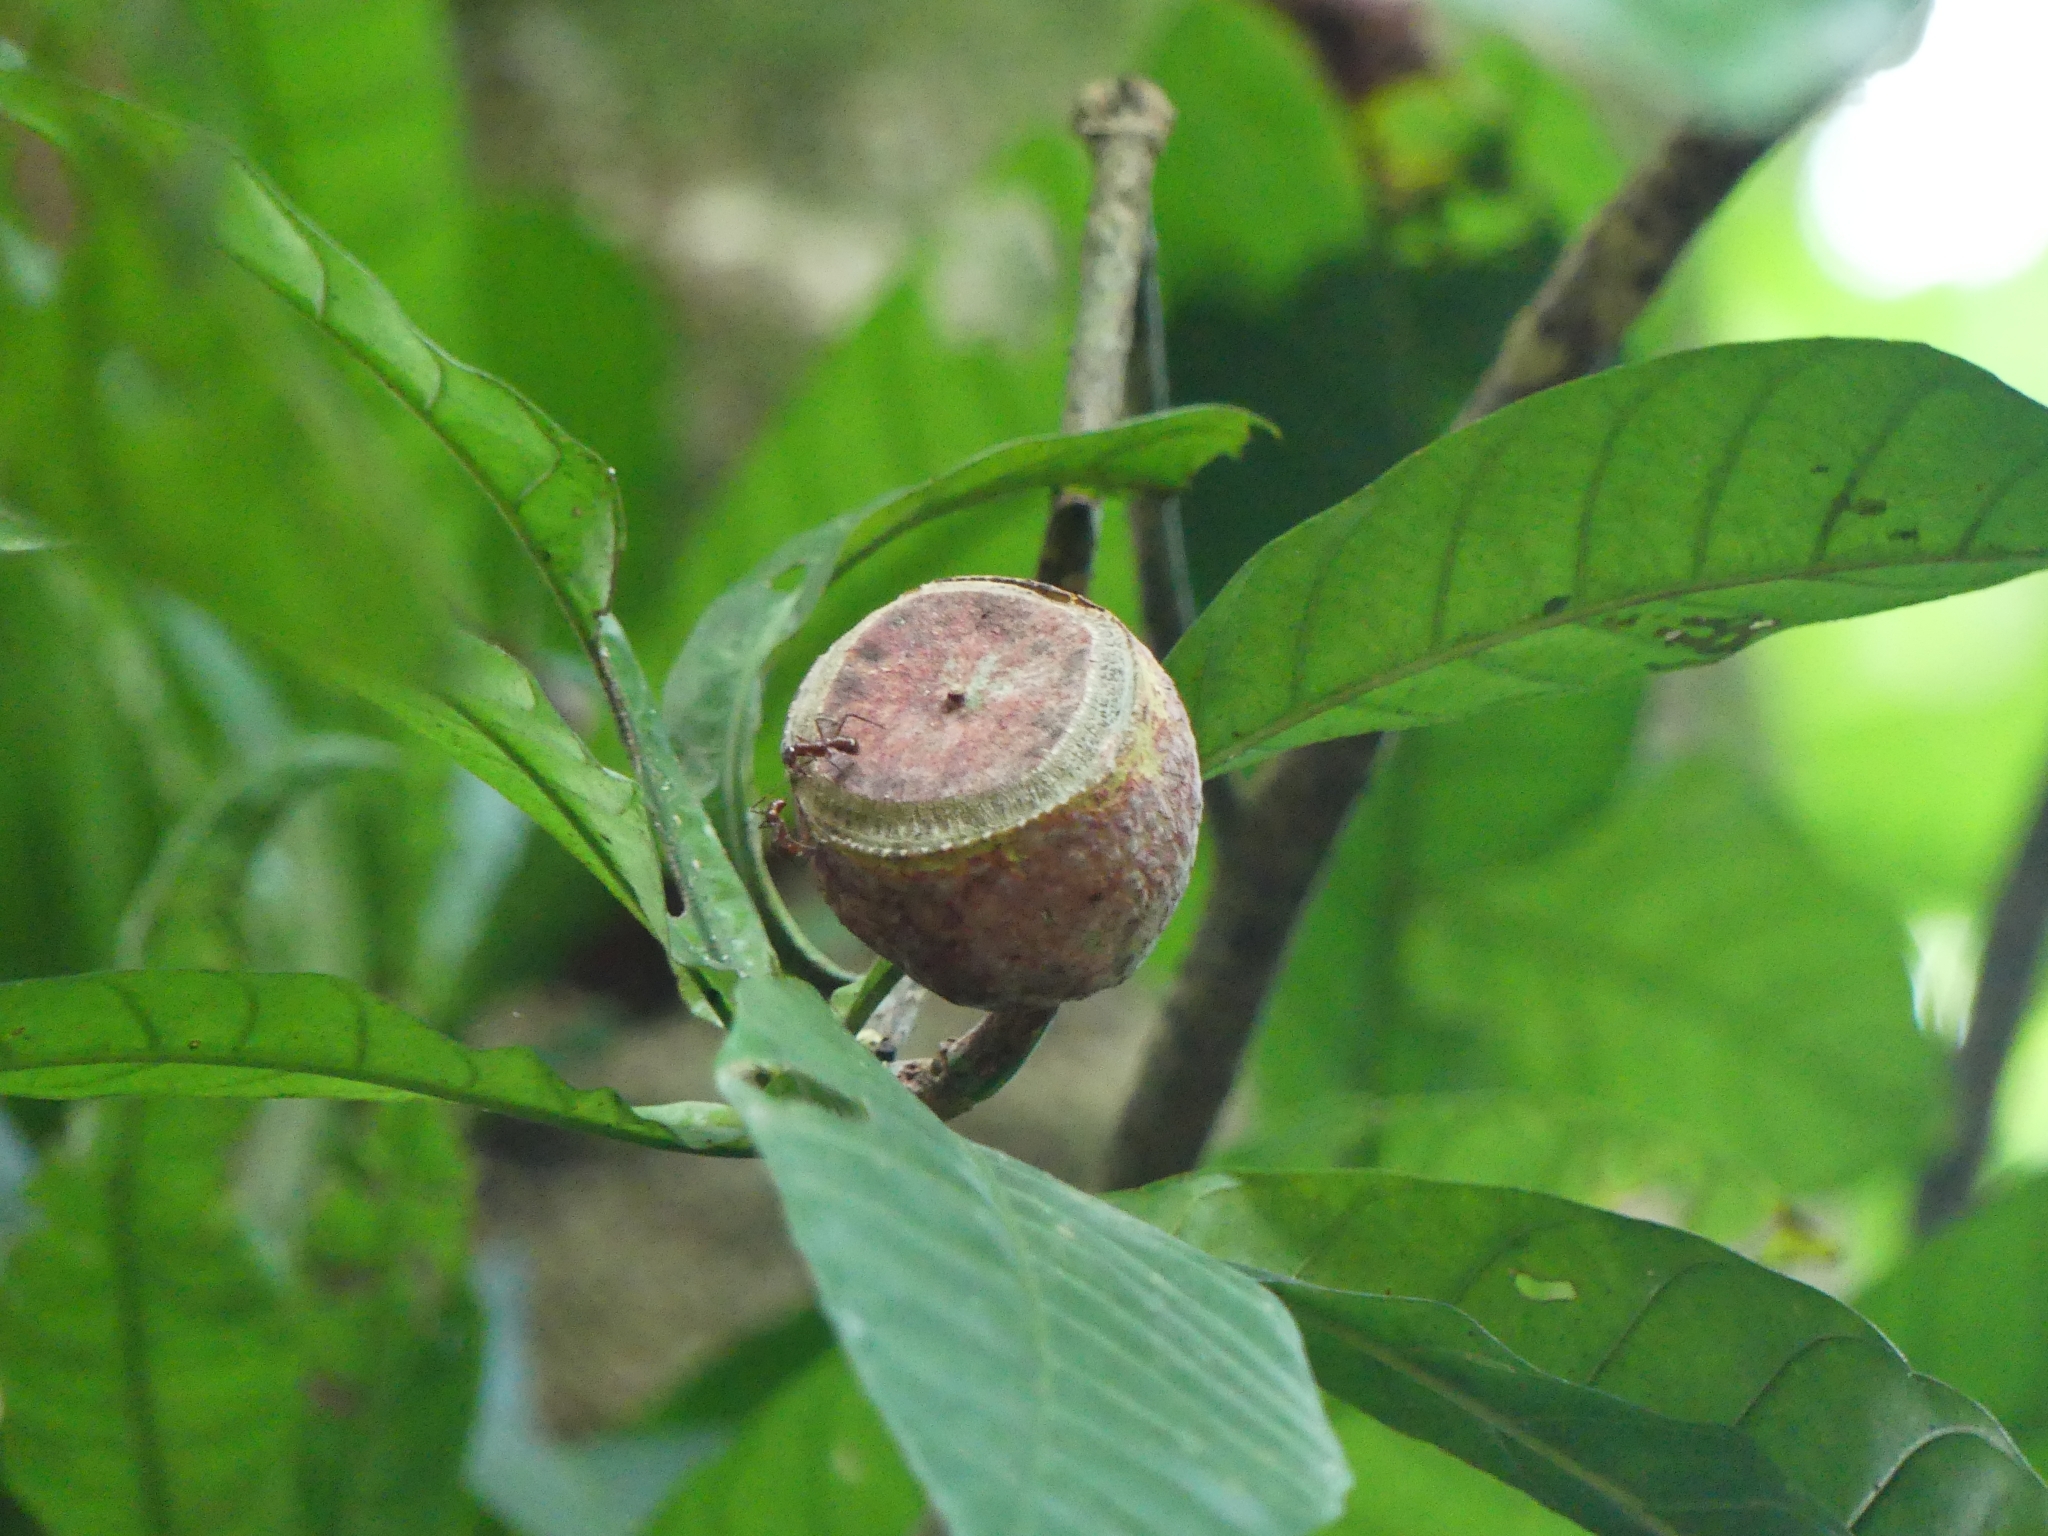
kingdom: Plantae
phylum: Tracheophyta
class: Magnoliopsida
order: Ericales
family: Lecythidaceae
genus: Gustavia
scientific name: Gustavia augusta
